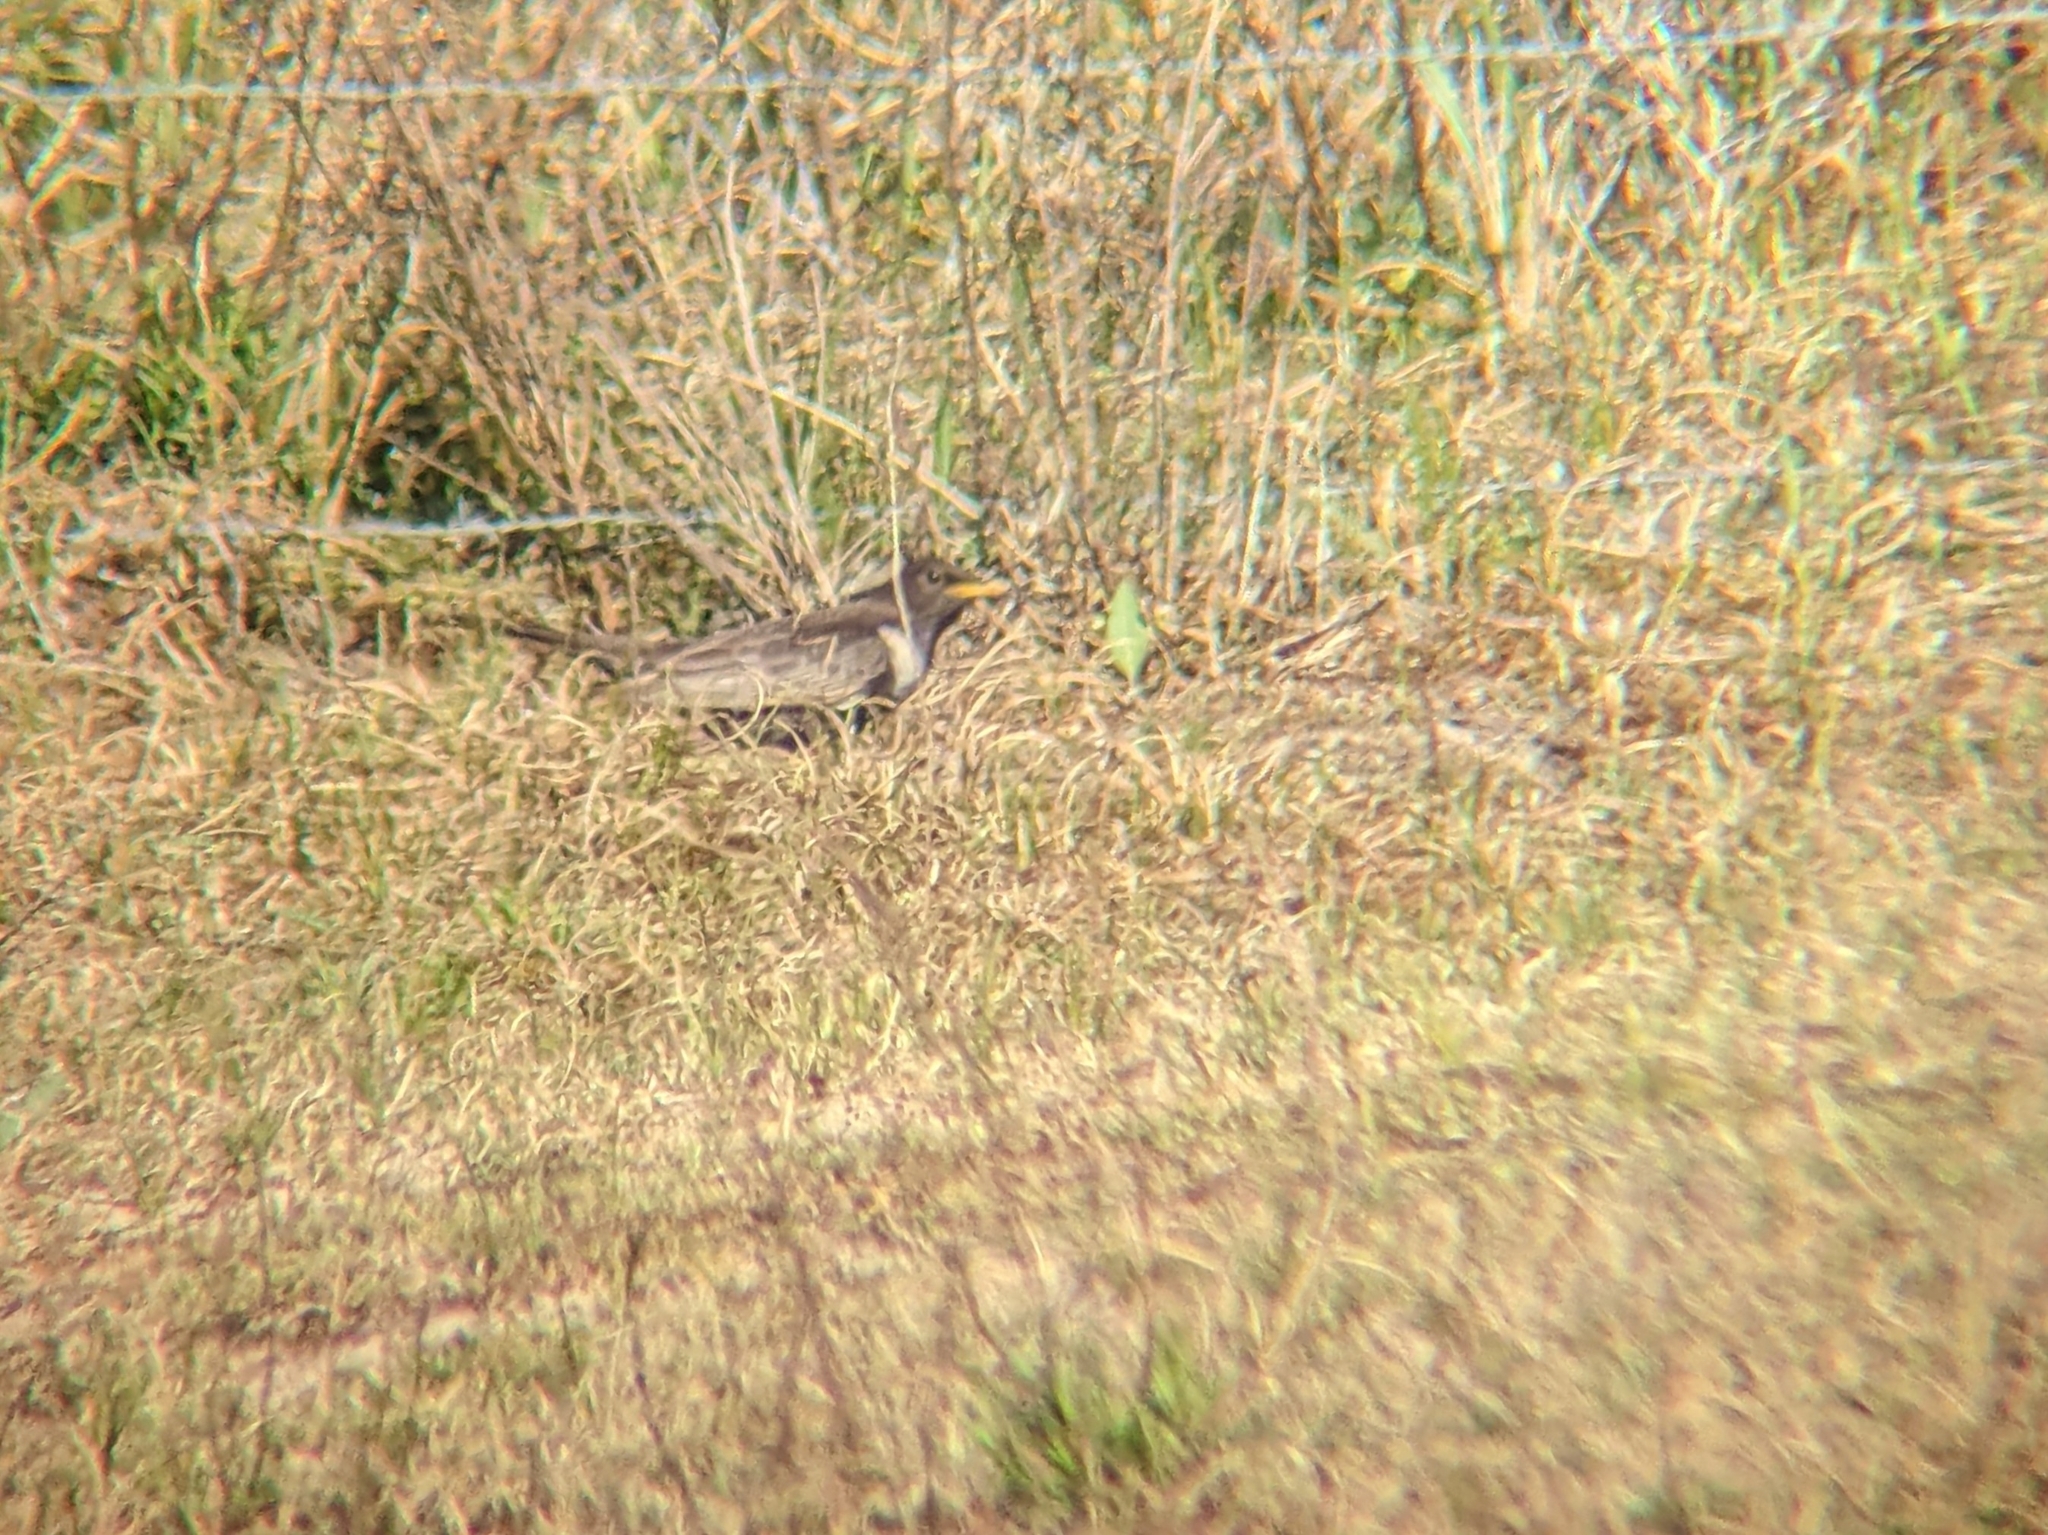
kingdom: Animalia
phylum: Chordata
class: Aves
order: Passeriformes
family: Turdidae
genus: Turdus
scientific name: Turdus torquatus
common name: Ring ouzel
